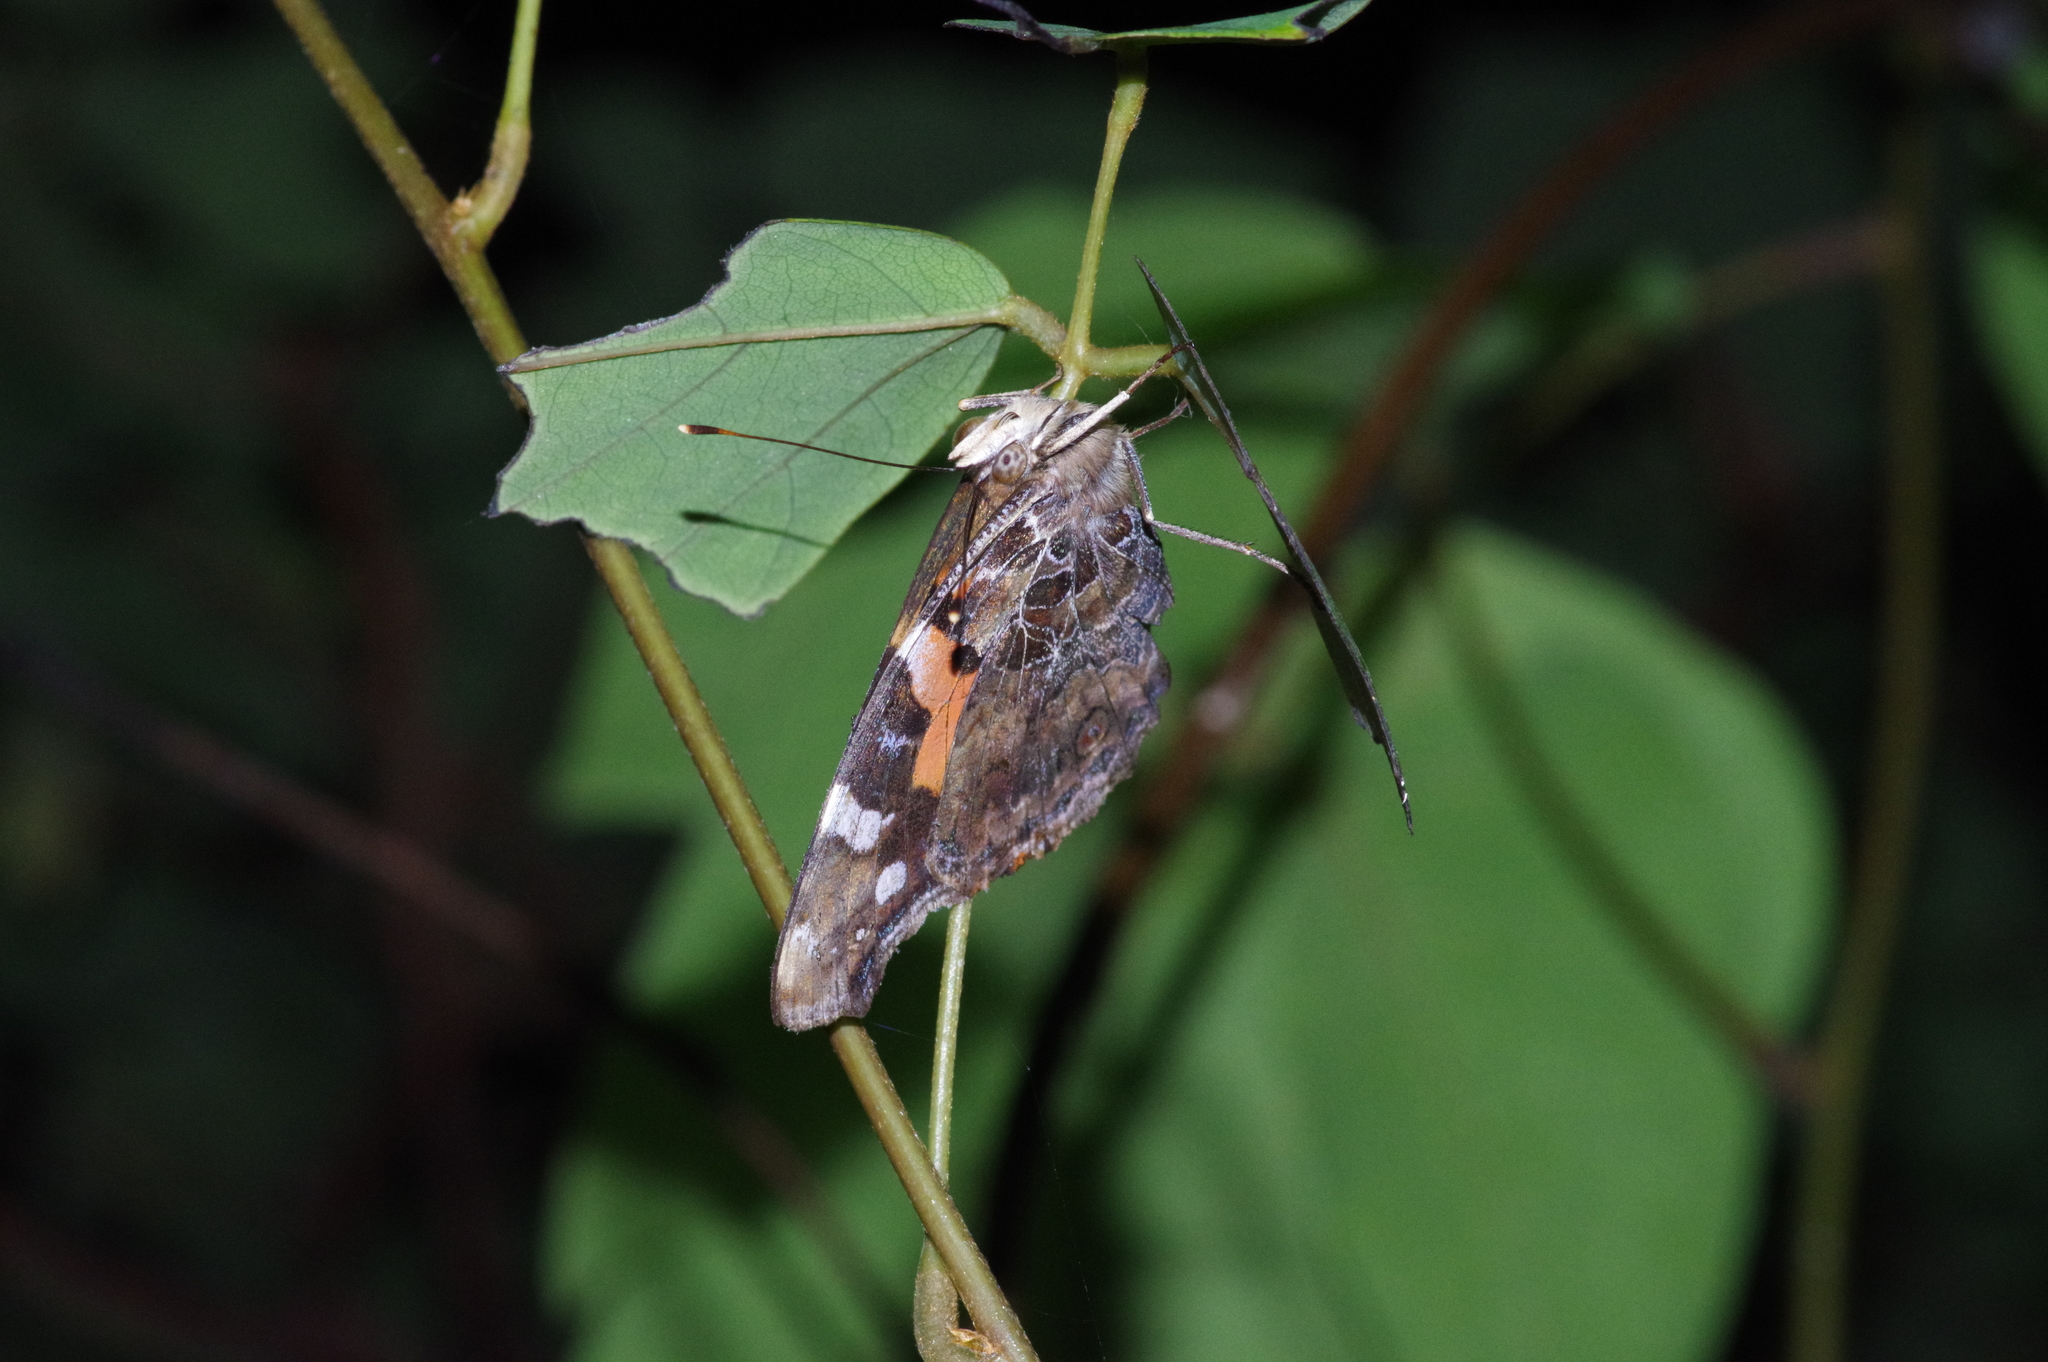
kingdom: Animalia
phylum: Arthropoda
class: Insecta
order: Lepidoptera
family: Nymphalidae
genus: Vanessa
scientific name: Vanessa indica
